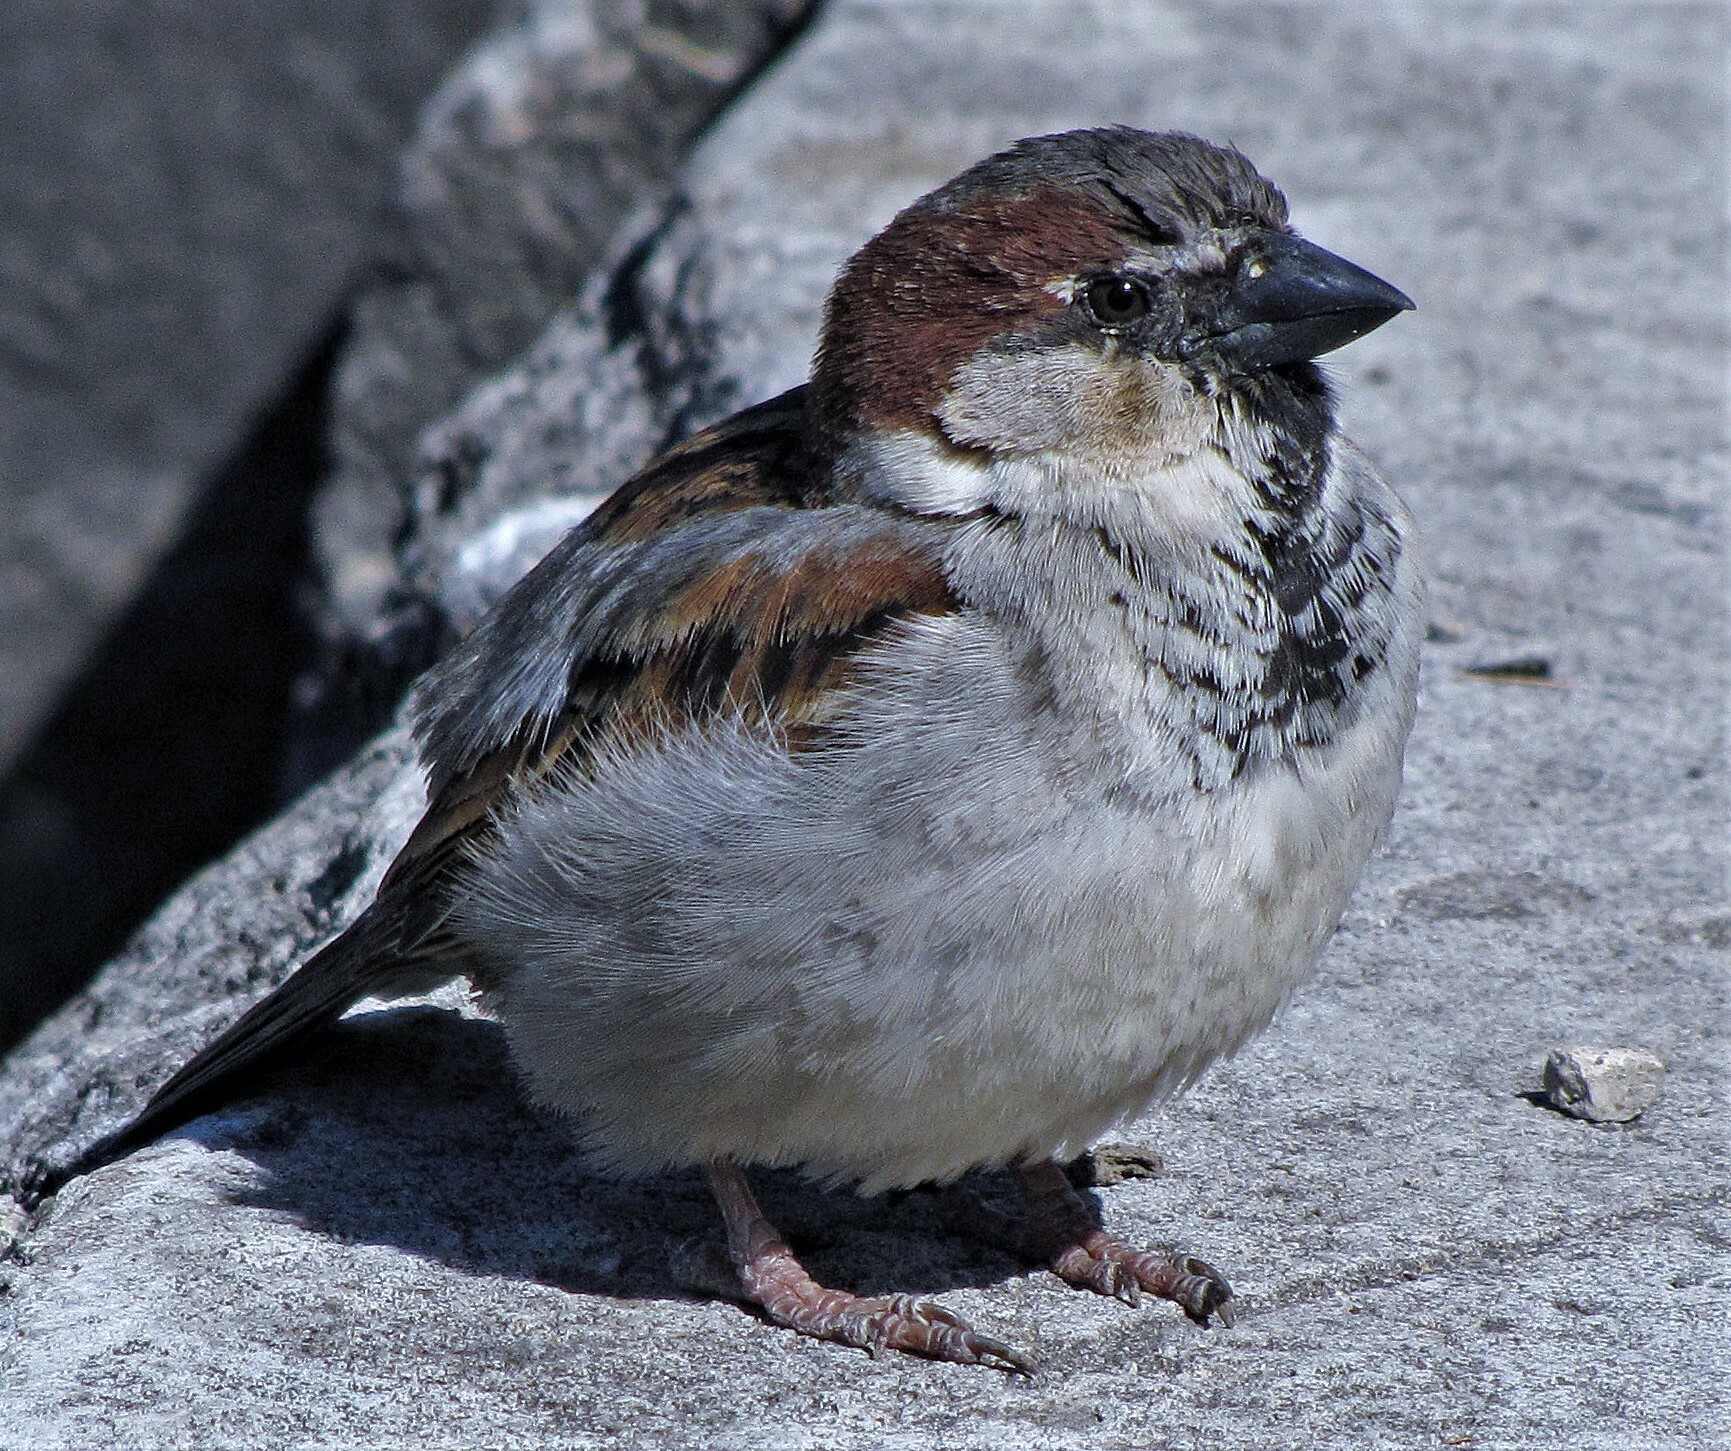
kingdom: Animalia
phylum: Chordata
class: Aves
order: Passeriformes
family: Passeridae
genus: Passer
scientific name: Passer domesticus
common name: House sparrow
